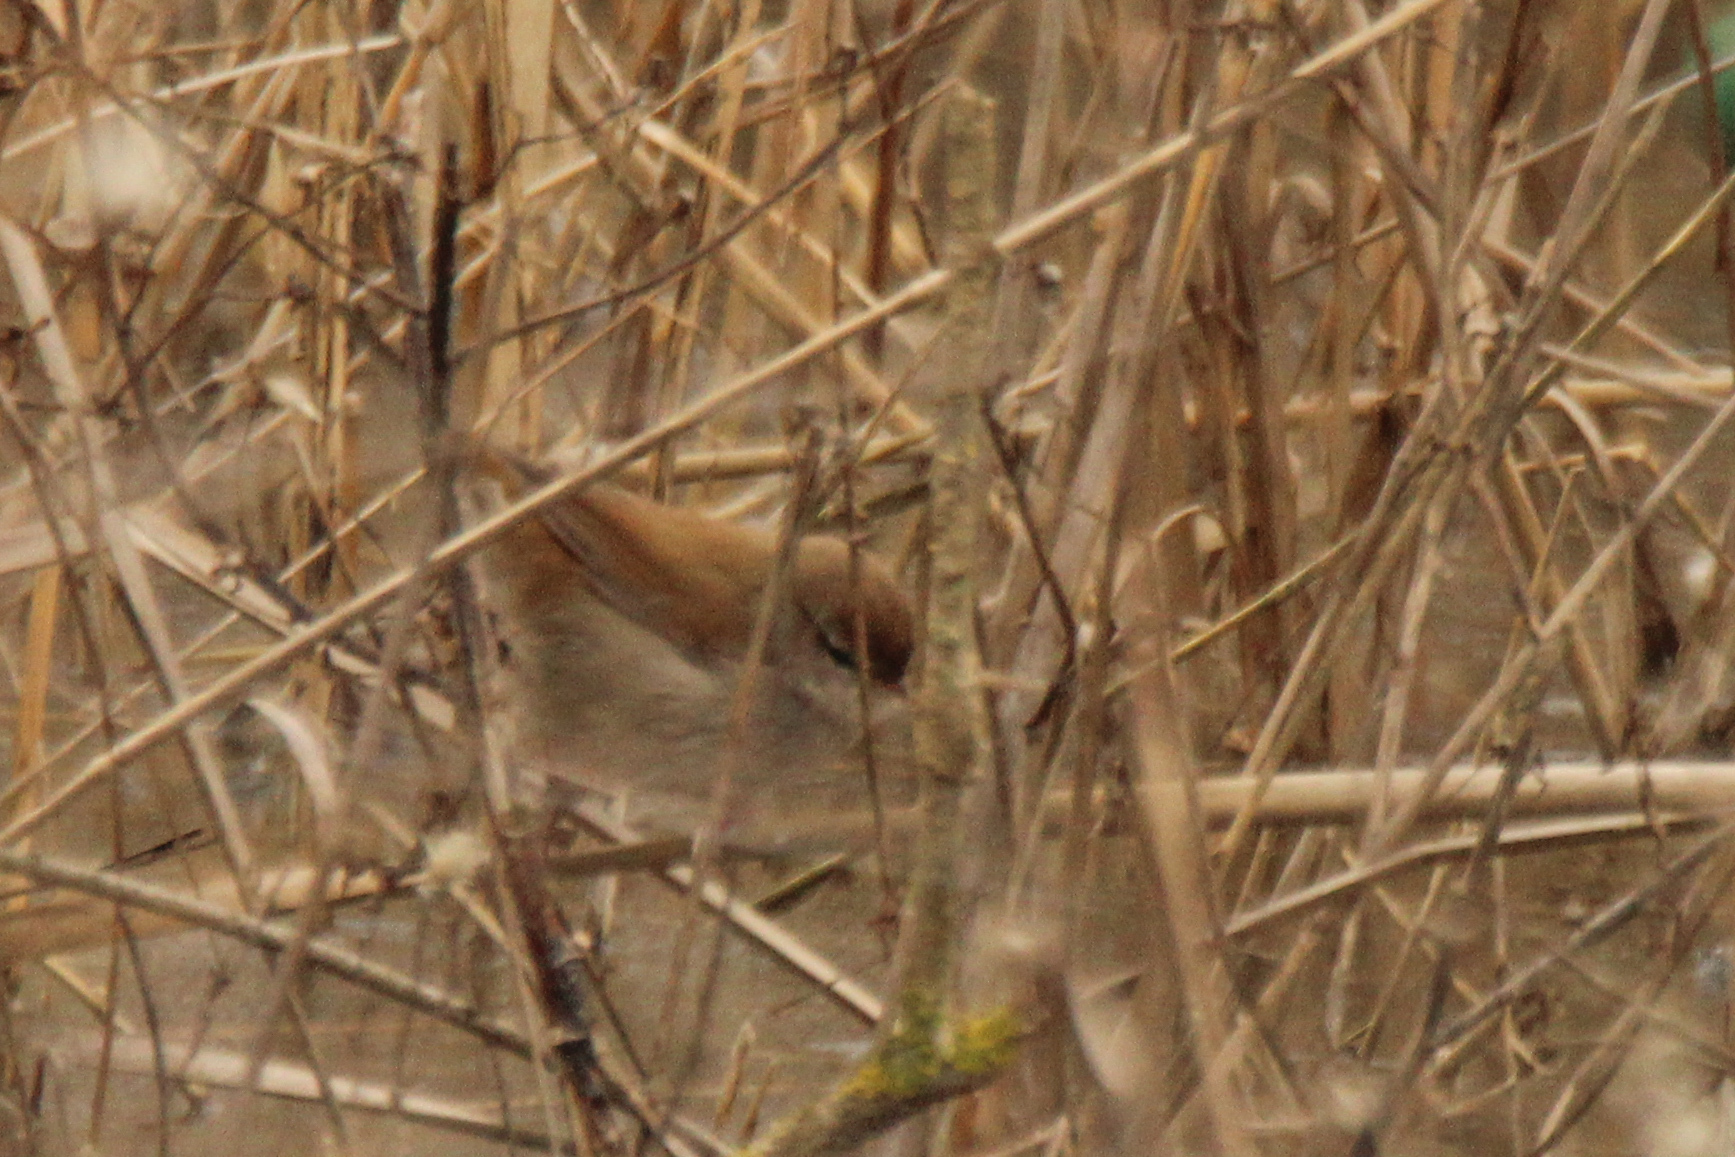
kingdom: Animalia
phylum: Chordata
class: Aves
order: Passeriformes
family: Cettiidae
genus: Cettia
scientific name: Cettia cetti
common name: Cetti's warbler
